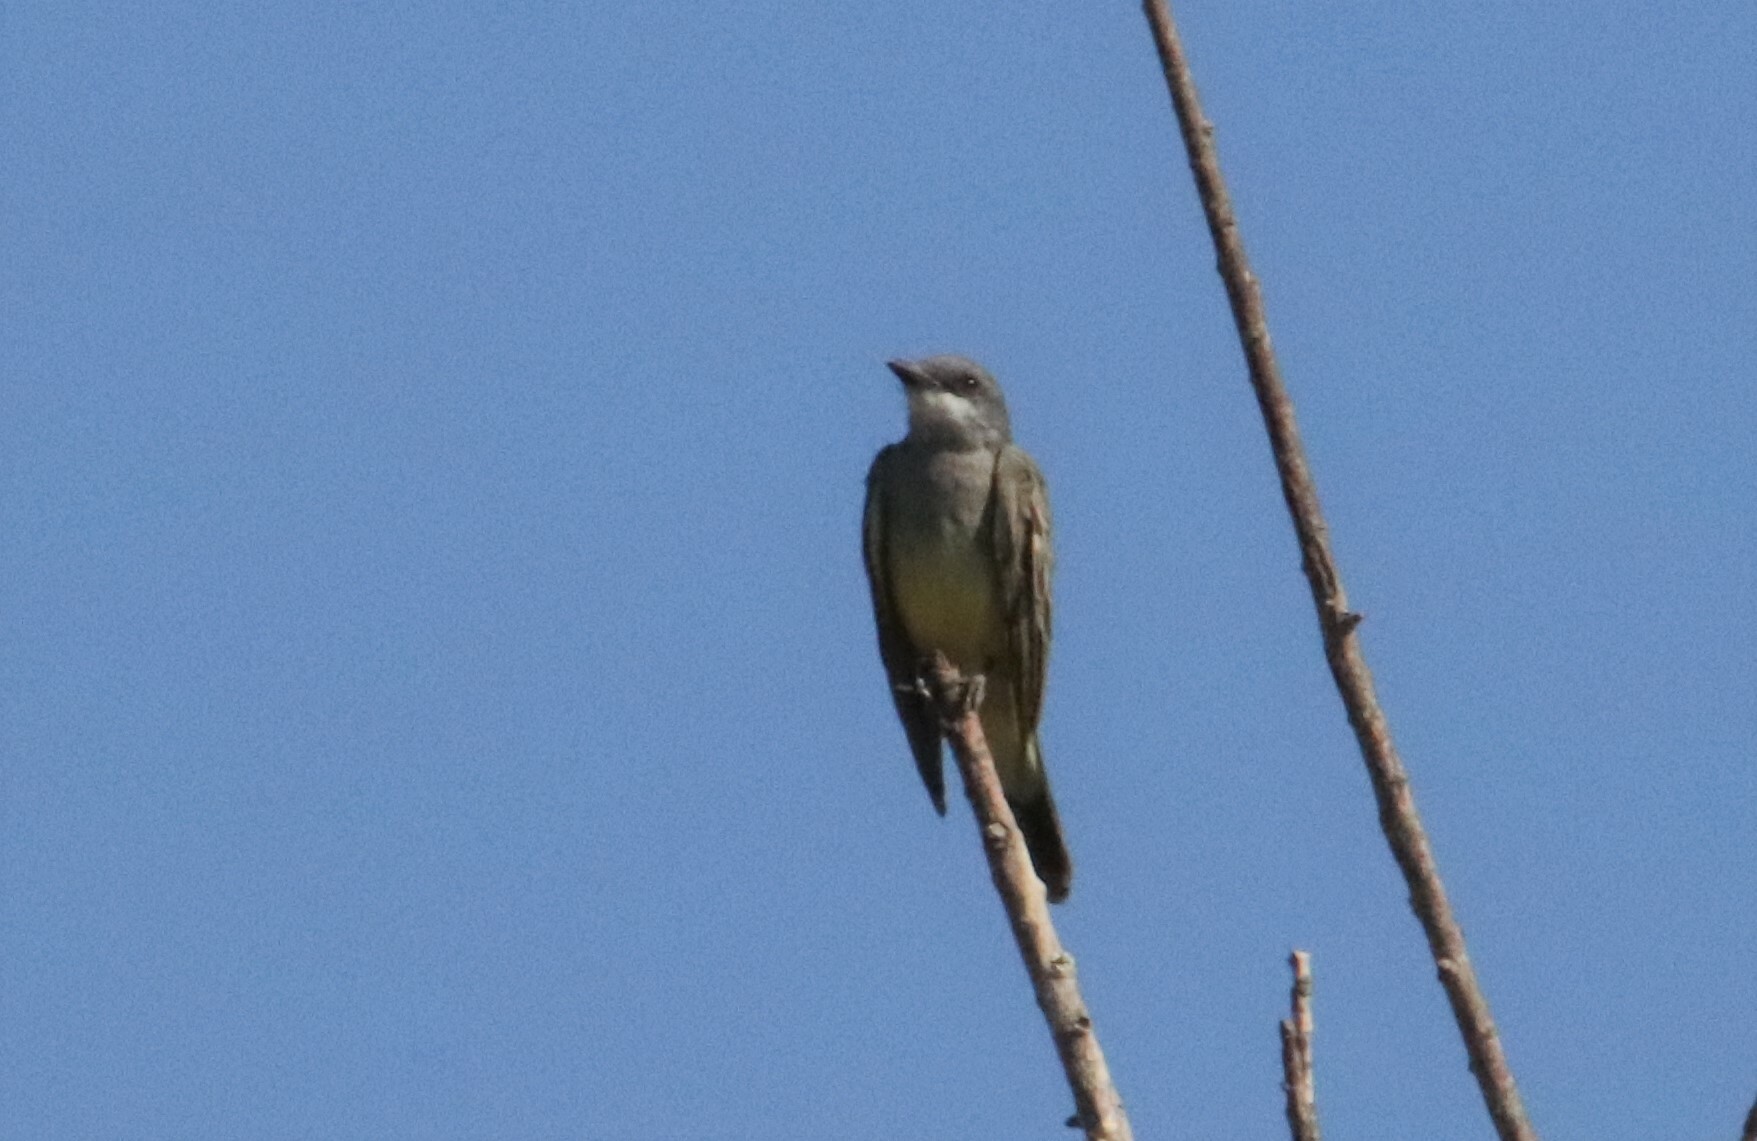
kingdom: Animalia
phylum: Chordata
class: Aves
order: Passeriformes
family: Tyrannidae
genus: Tyrannus
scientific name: Tyrannus vociferans
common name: Cassin's kingbird
